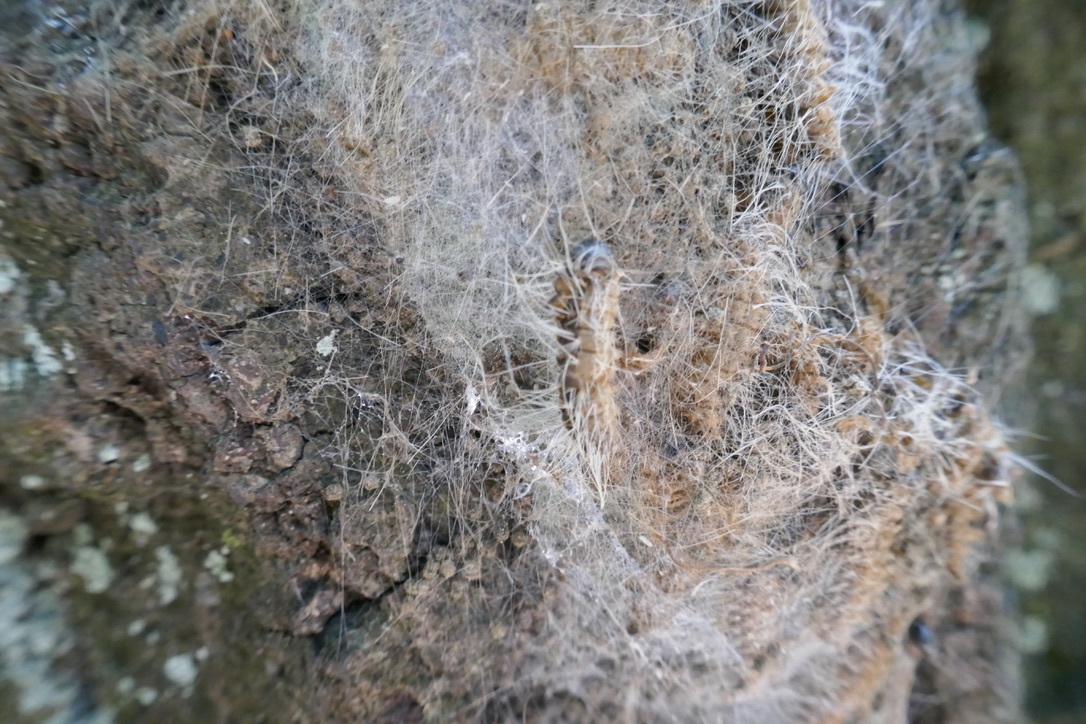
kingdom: Animalia
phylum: Arthropoda
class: Insecta
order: Lepidoptera
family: Notodontidae
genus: Thaumetopoea
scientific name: Thaumetopoea processionea
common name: Oak processionea
